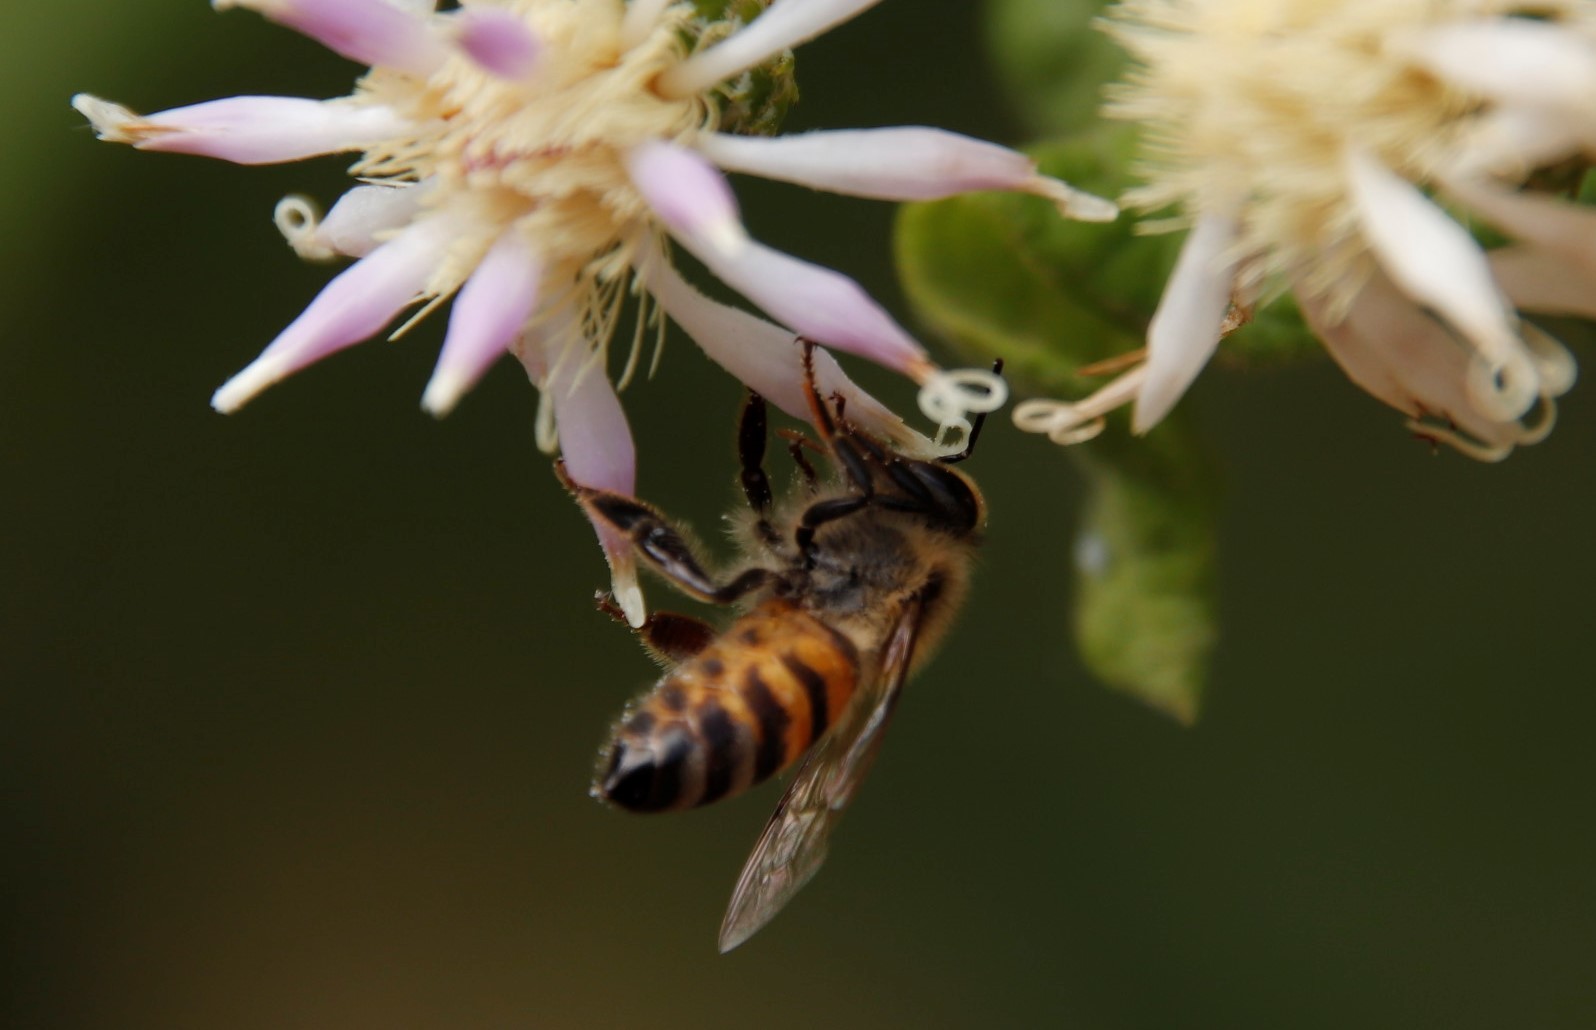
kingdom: Animalia
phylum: Arthropoda
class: Insecta
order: Hymenoptera
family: Apidae
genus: Apis
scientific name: Apis mellifera
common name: Honey bee
